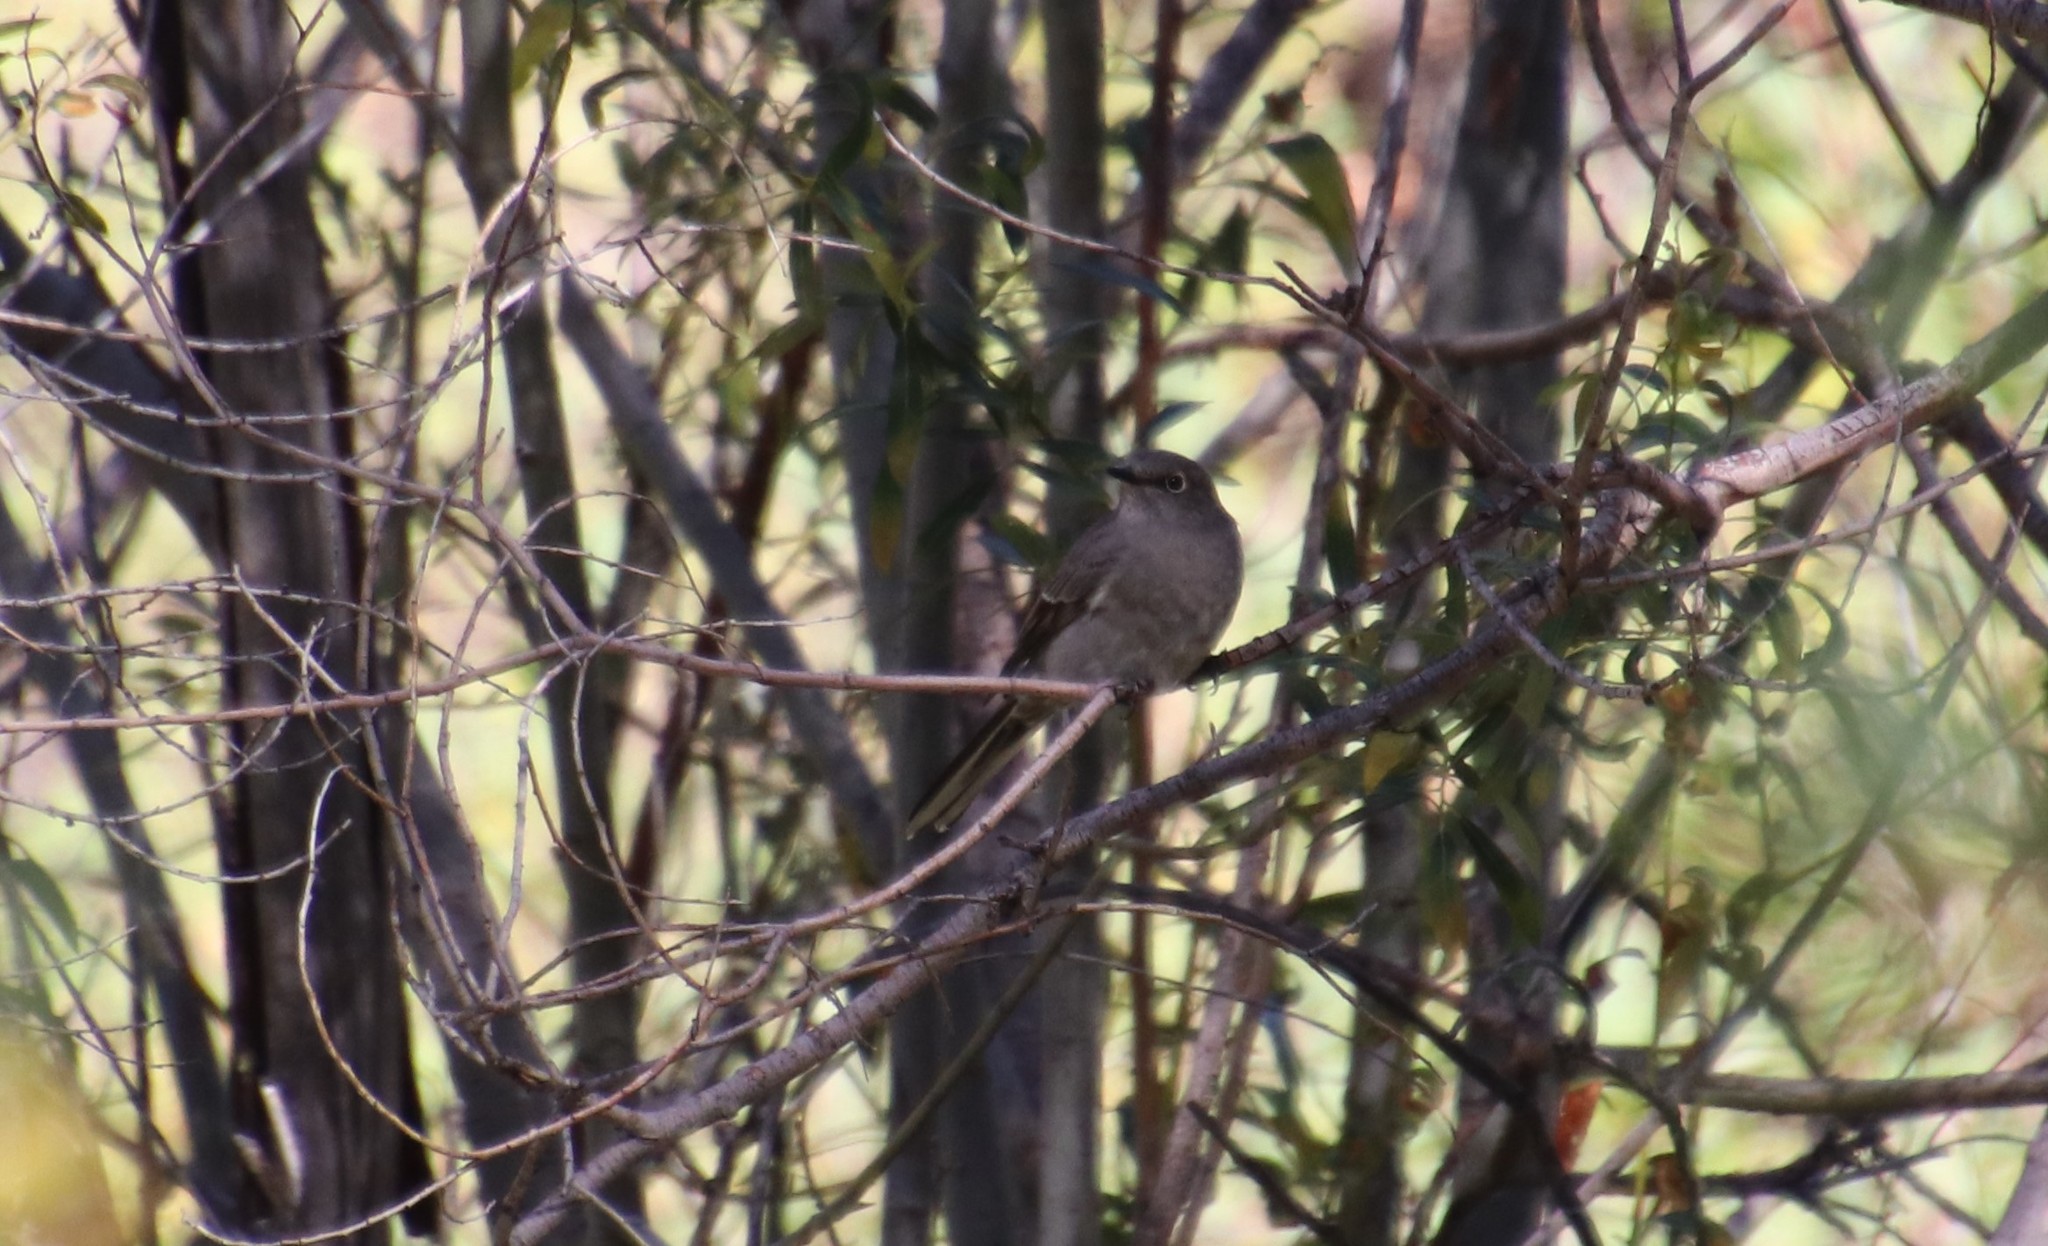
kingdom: Animalia
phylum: Chordata
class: Aves
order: Passeriformes
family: Turdidae
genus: Myadestes
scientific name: Myadestes townsendi
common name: Townsend's solitaire
